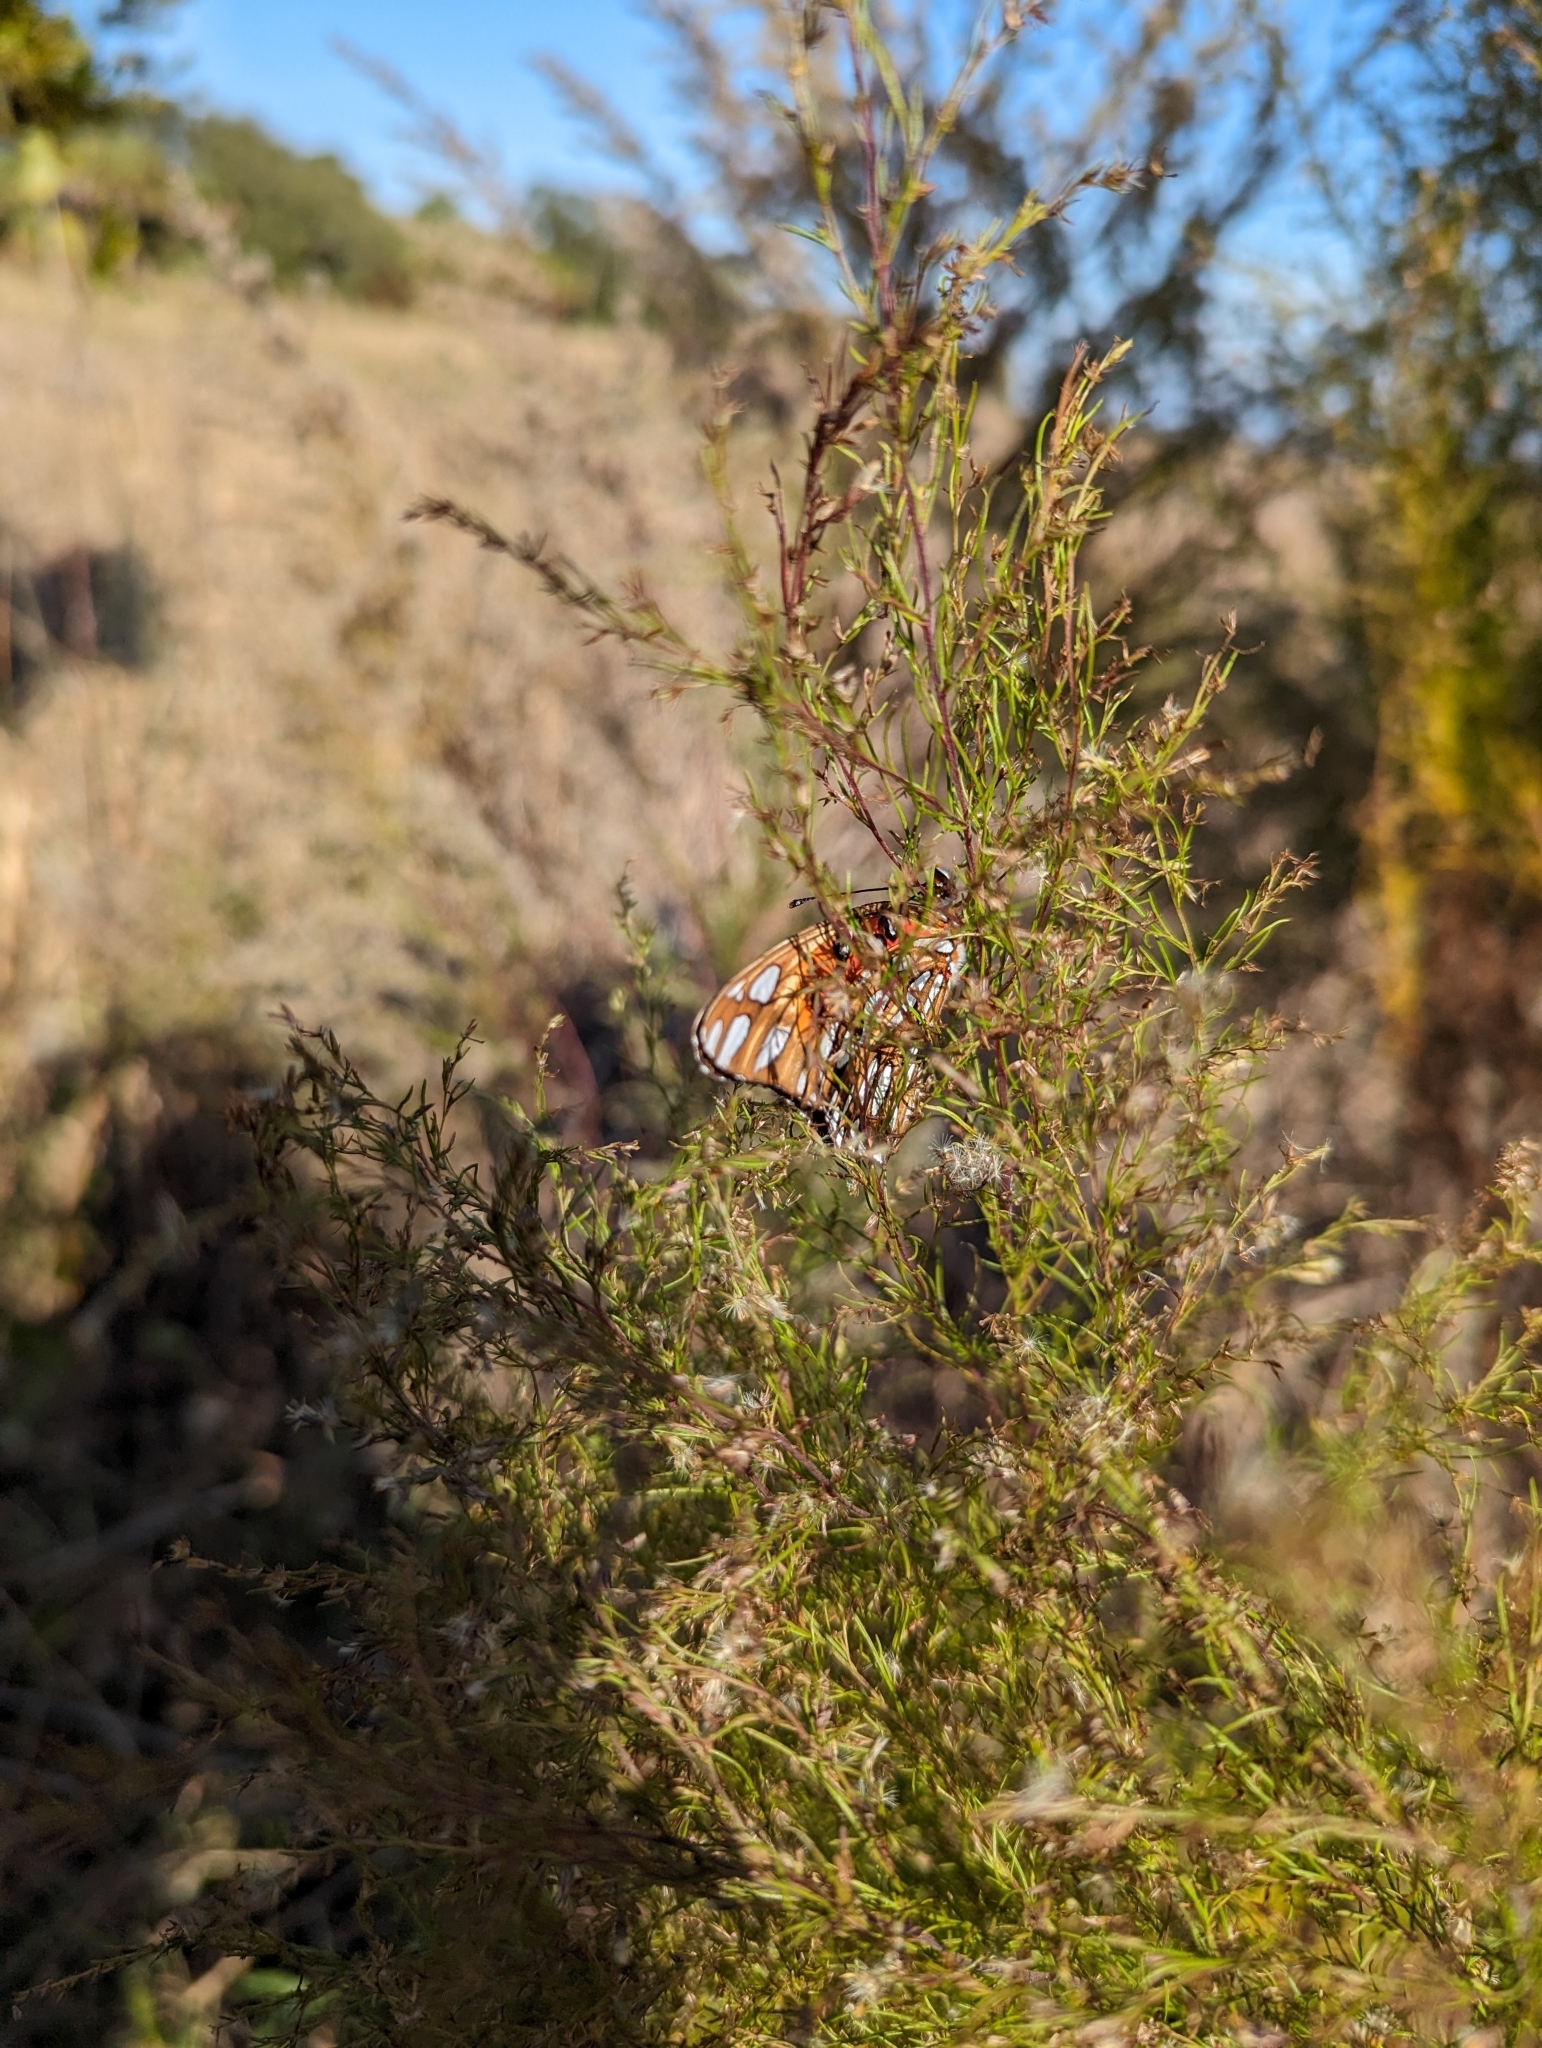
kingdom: Animalia
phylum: Arthropoda
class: Insecta
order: Lepidoptera
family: Nymphalidae
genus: Dione
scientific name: Dione vanillae
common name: Gulf fritillary
